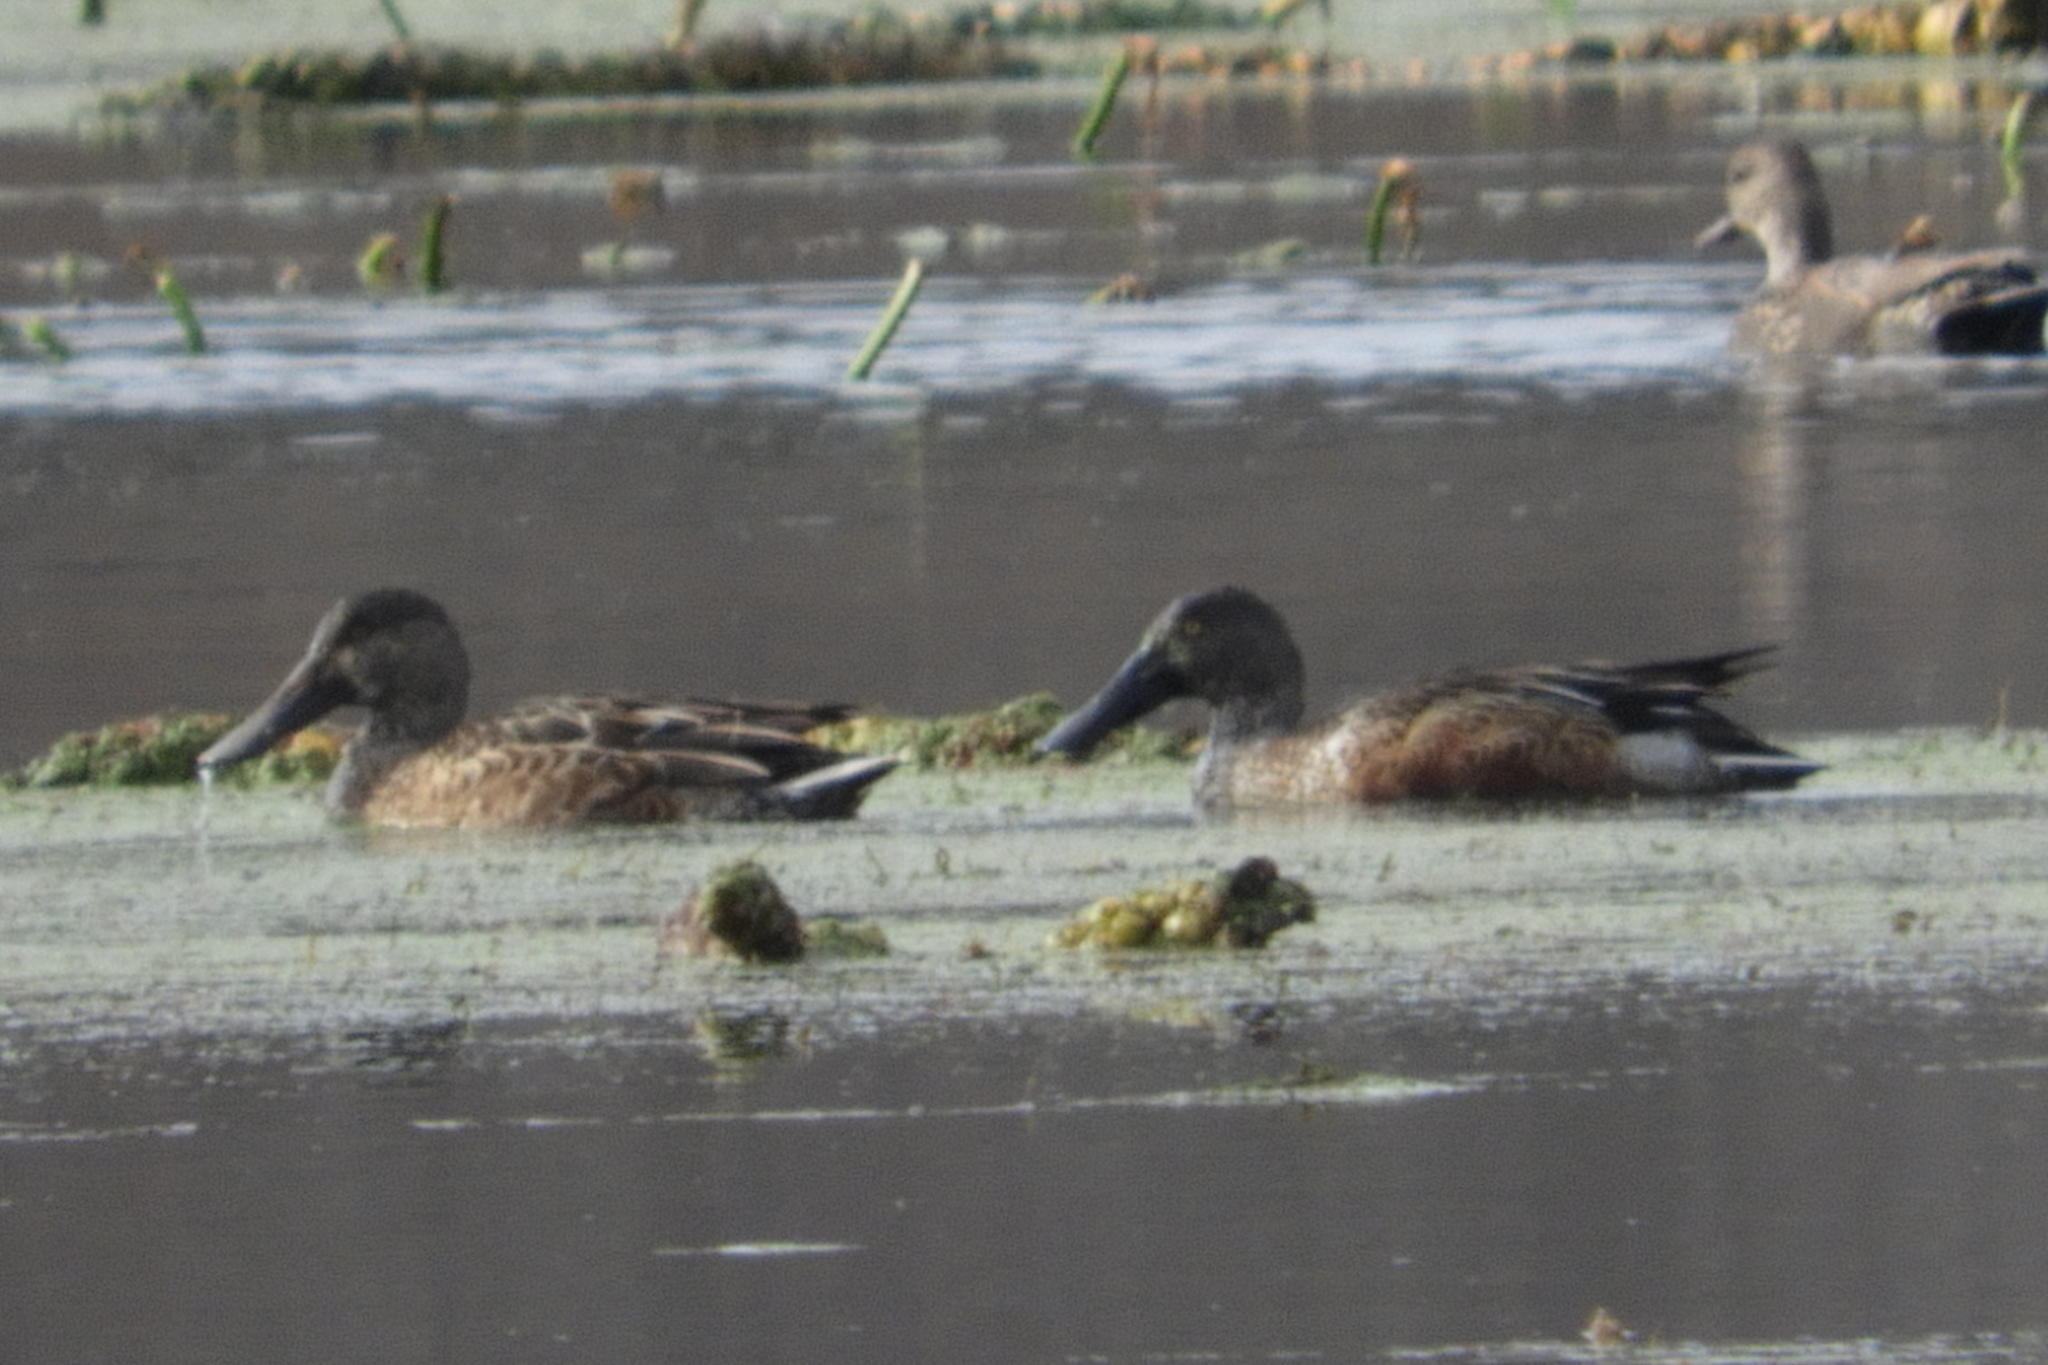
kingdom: Animalia
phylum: Chordata
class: Aves
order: Anseriformes
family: Anatidae
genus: Spatula
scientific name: Spatula clypeata
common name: Northern shoveler
